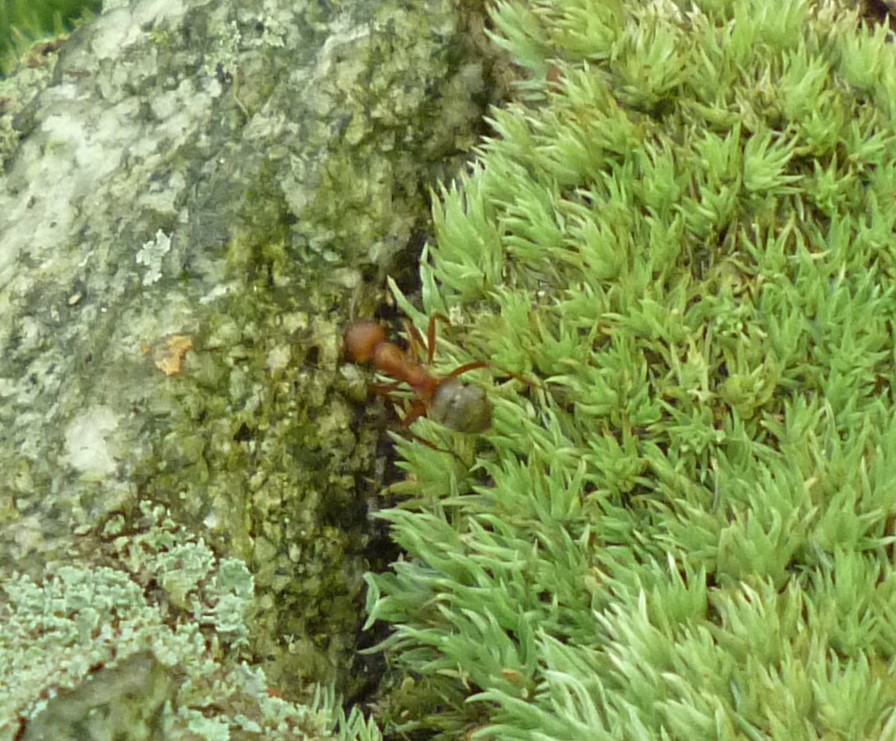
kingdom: Animalia
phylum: Arthropoda
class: Insecta
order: Hymenoptera
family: Formicidae
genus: Formica
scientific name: Formica
